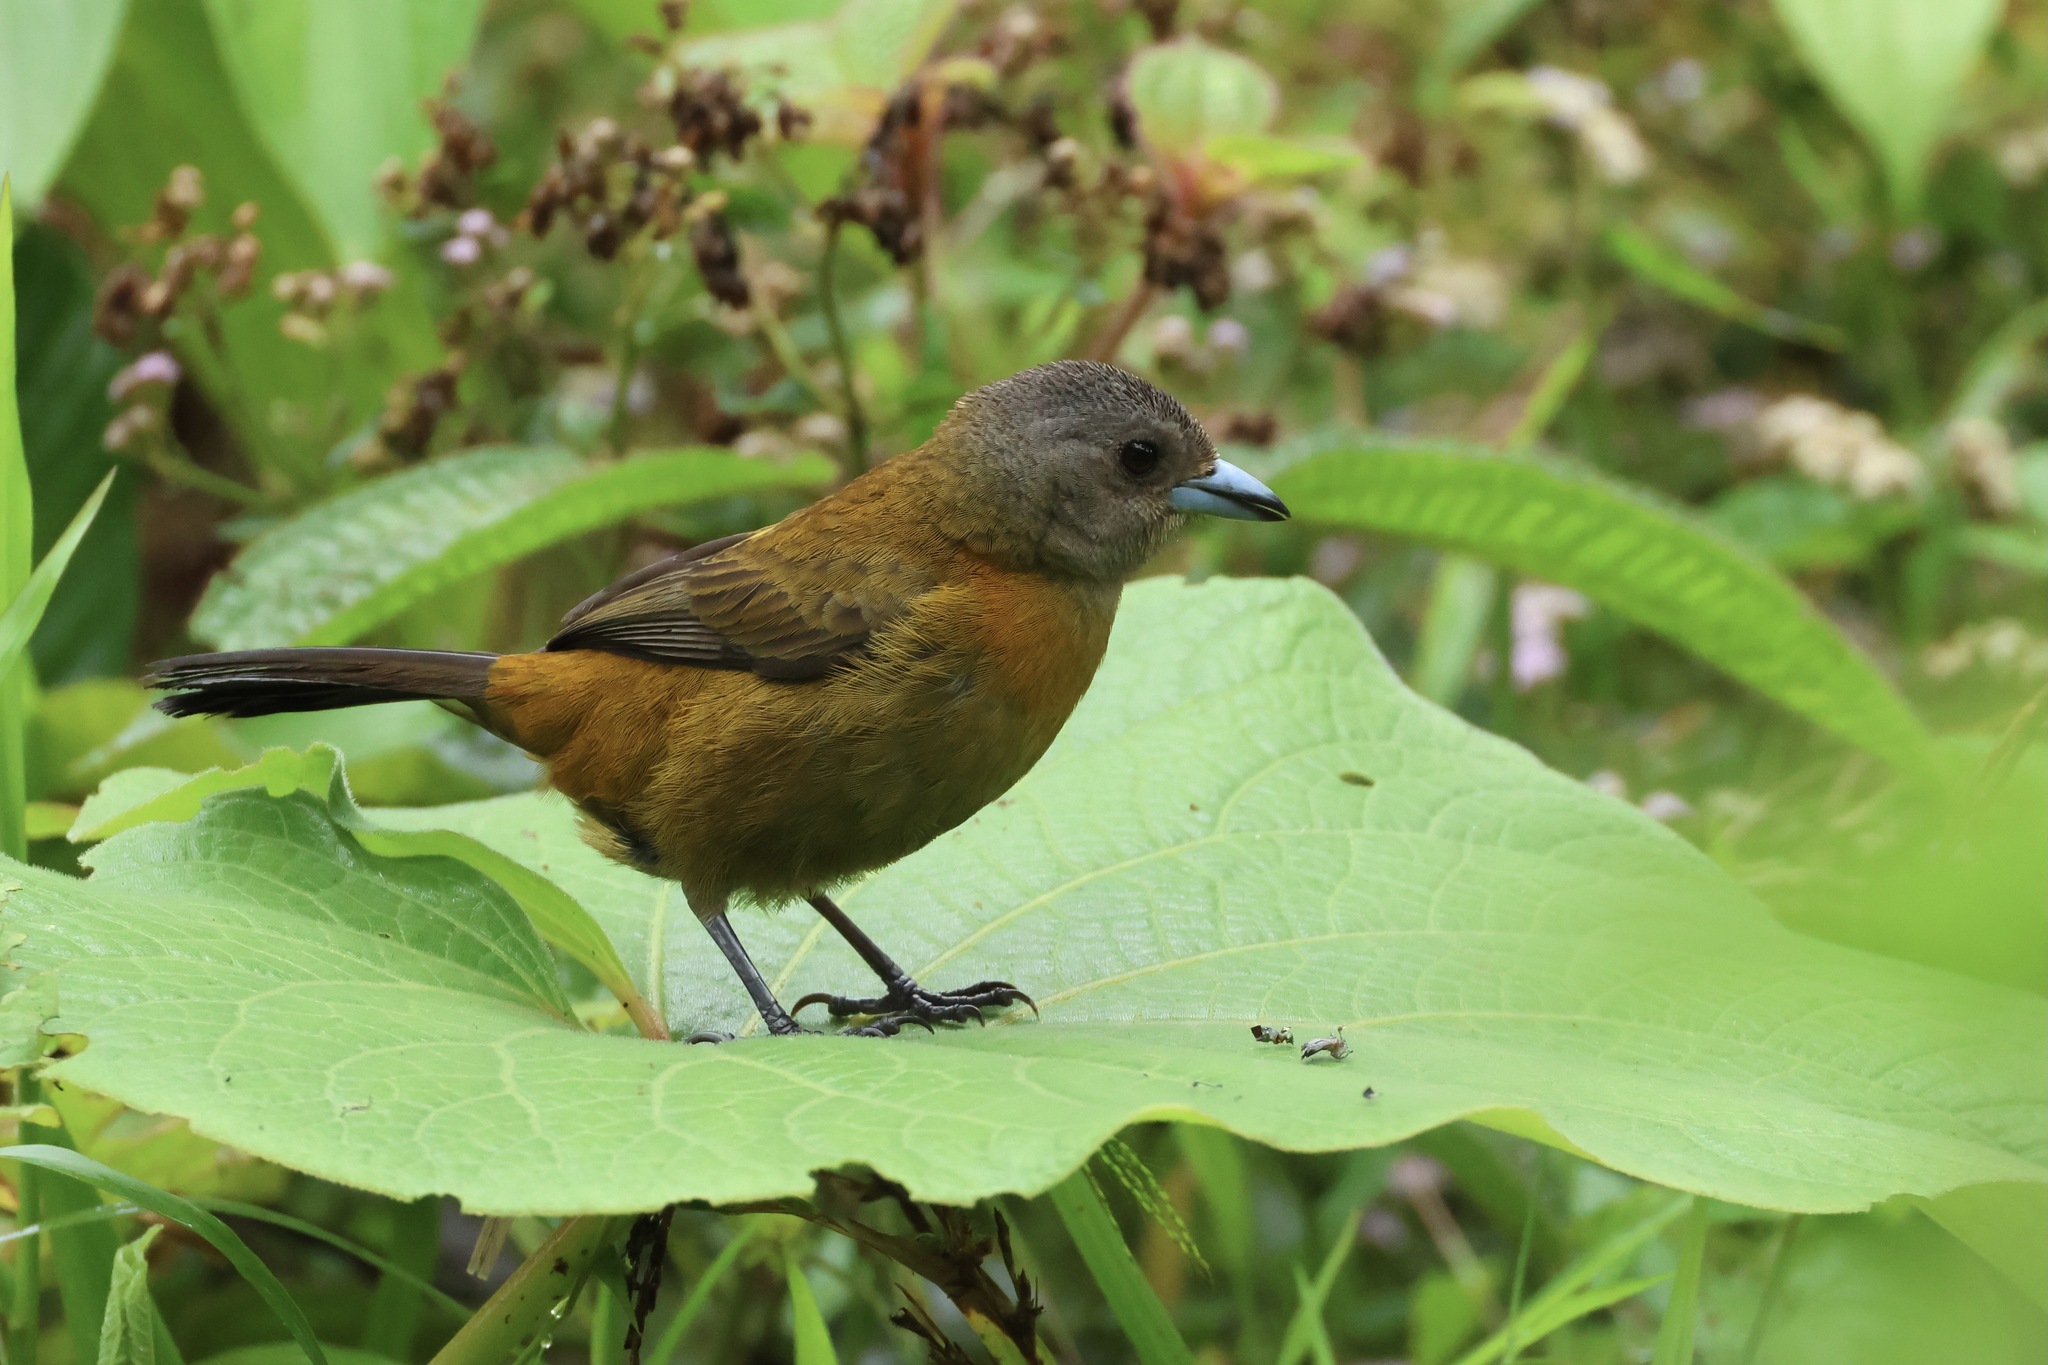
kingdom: Animalia
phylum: Chordata
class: Aves
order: Passeriformes
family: Thraupidae
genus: Ramphocelus
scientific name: Ramphocelus passerinii
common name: Passerini's tanager
